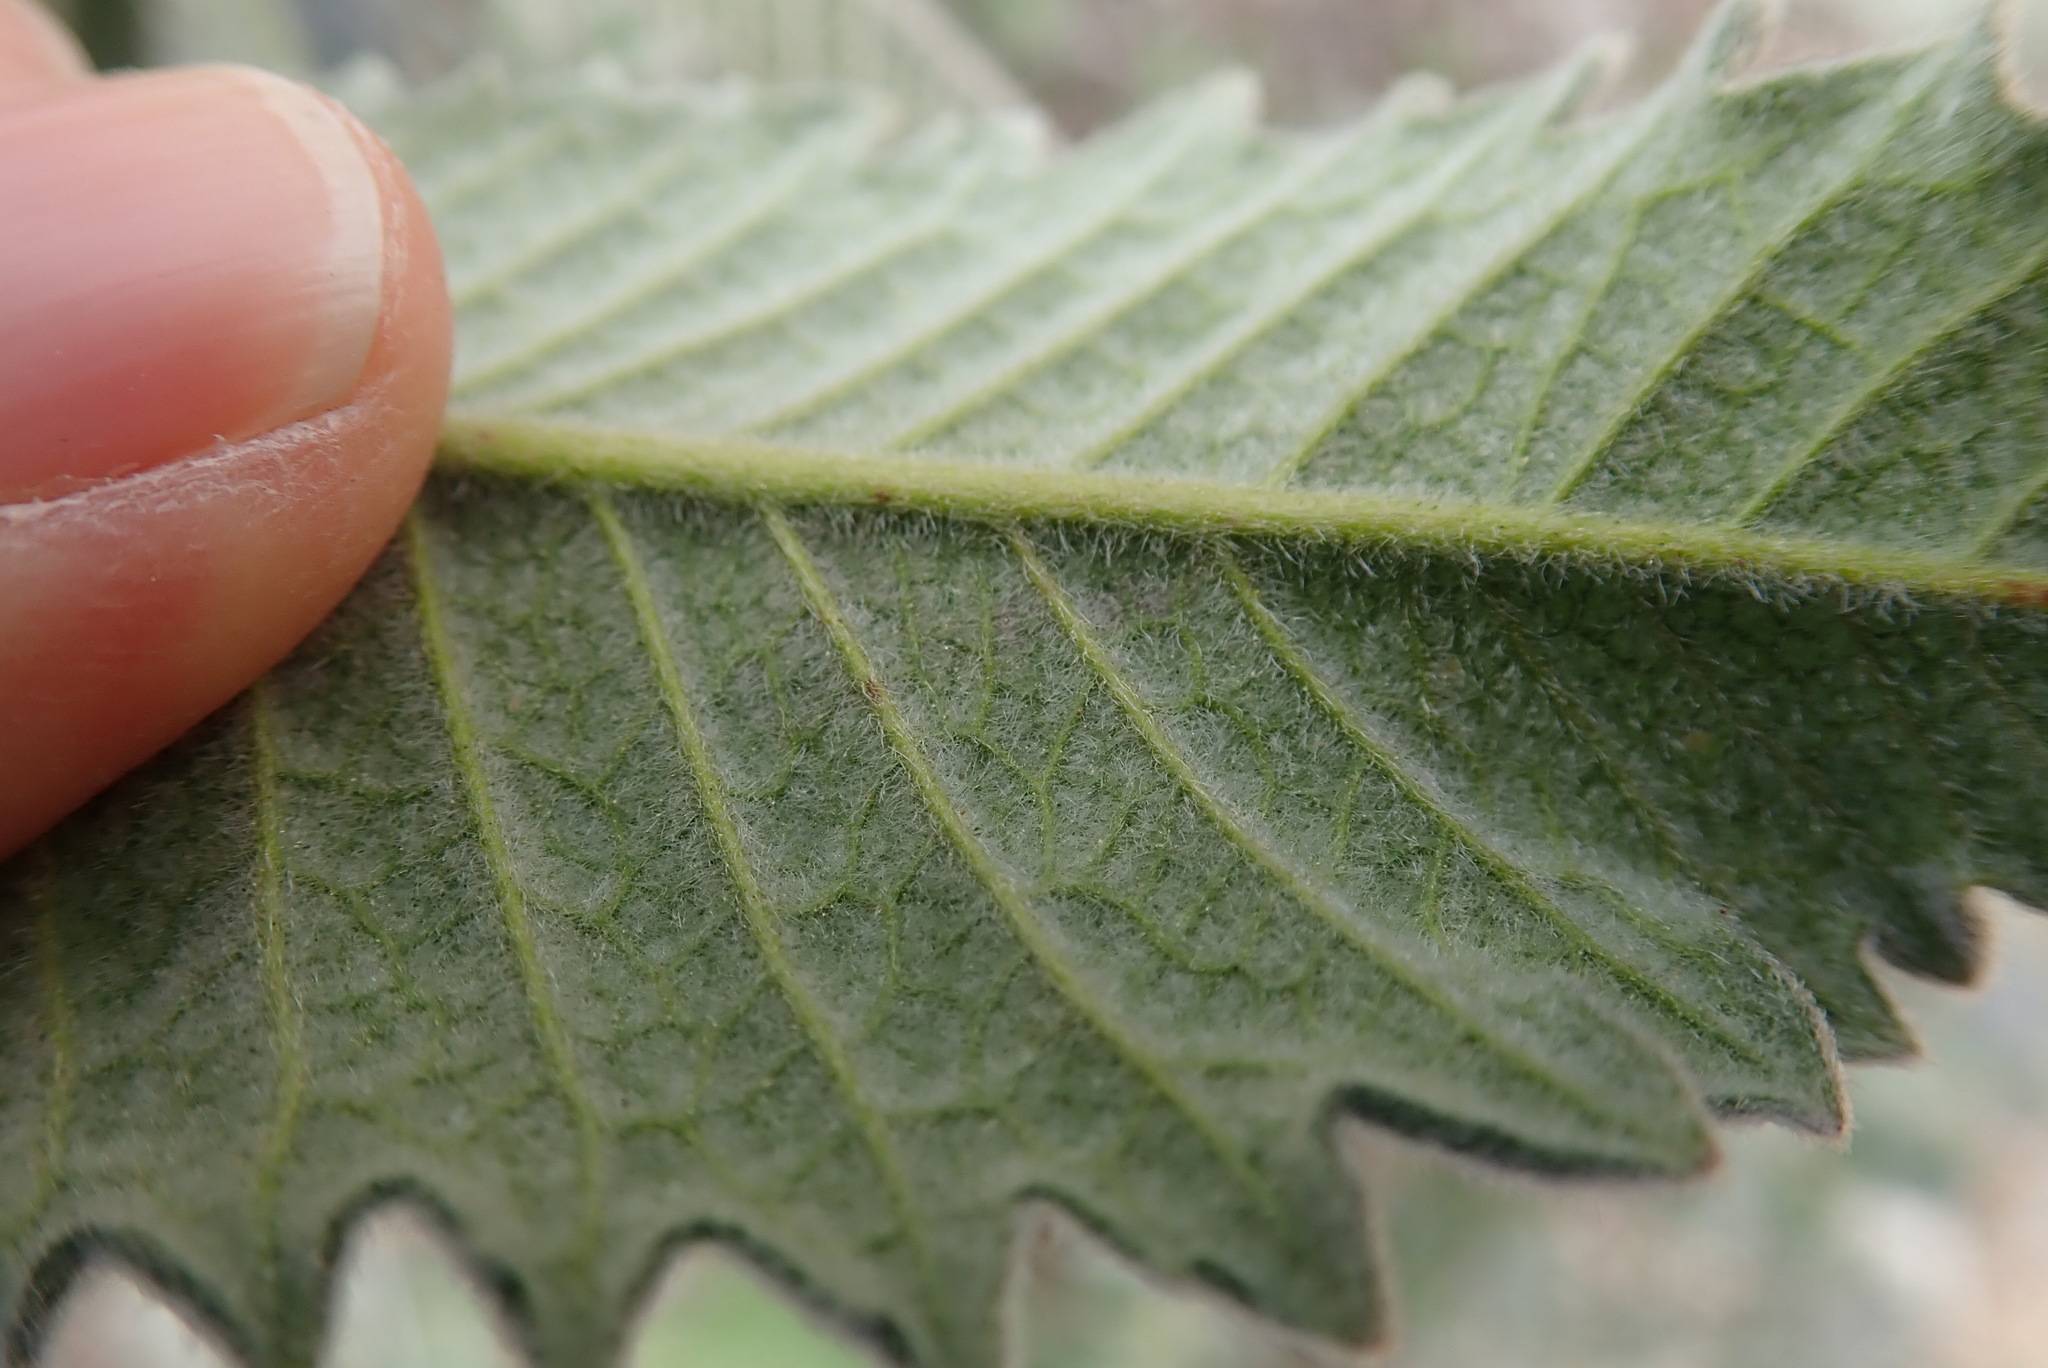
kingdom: Animalia
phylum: Arthropoda
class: Insecta
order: Diptera
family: Agromyzidae
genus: Phytomyza
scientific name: Phytomyza eriodictyi
